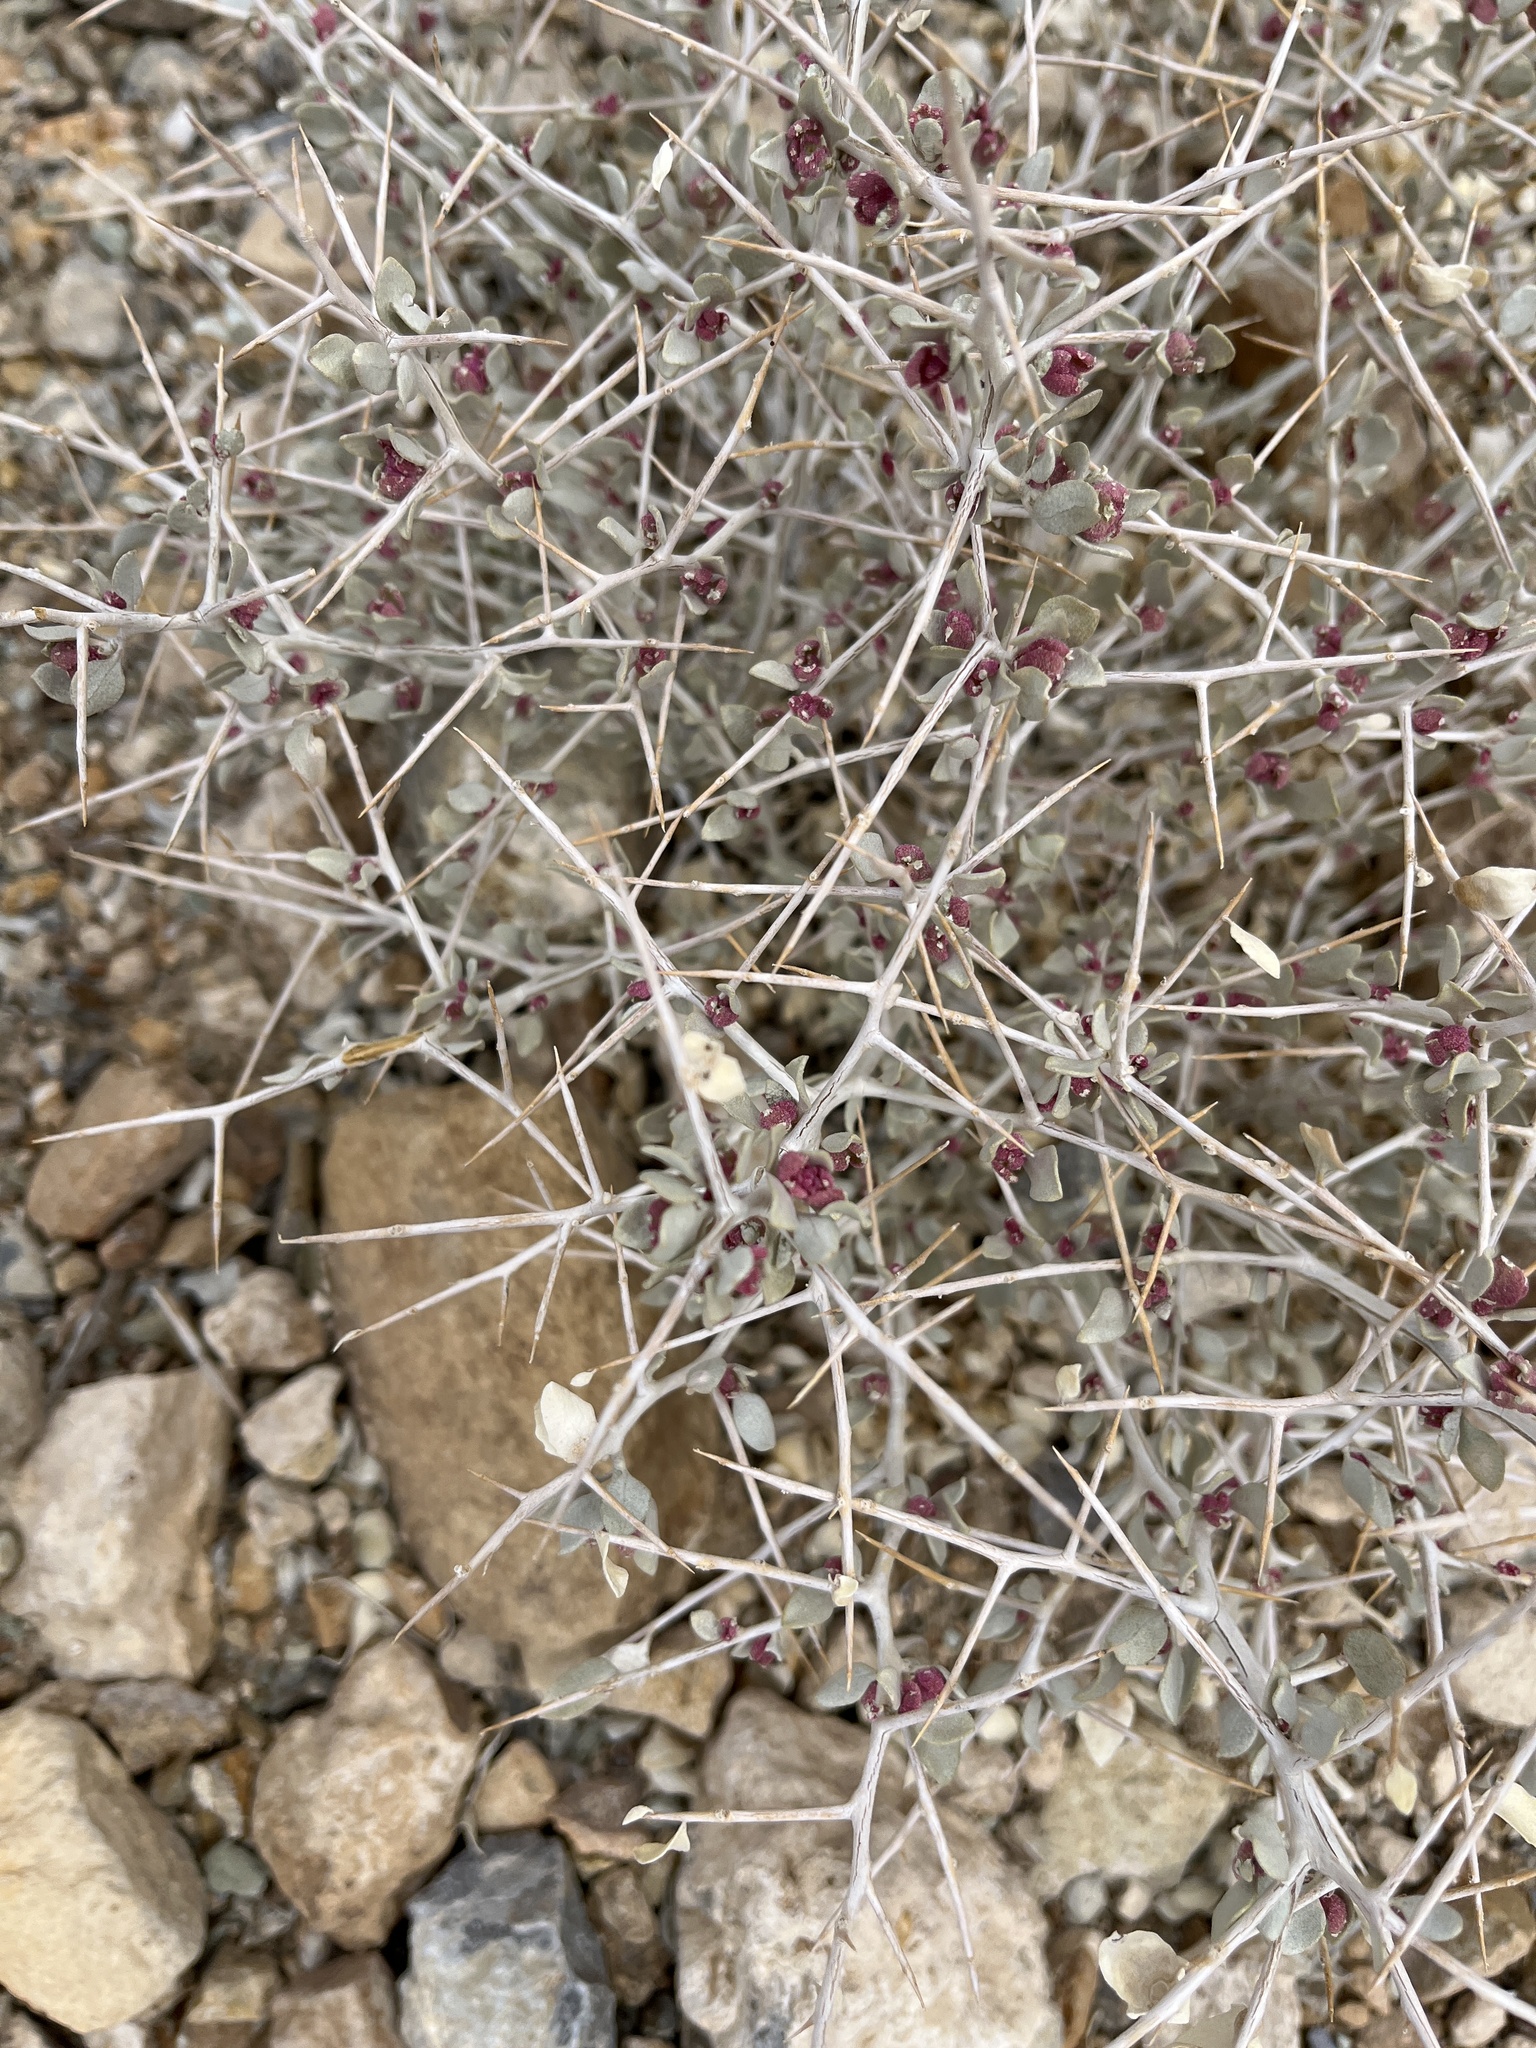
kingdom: Plantae
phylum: Tracheophyta
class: Magnoliopsida
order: Caryophyllales
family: Amaranthaceae
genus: Atriplex
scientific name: Atriplex confertifolia
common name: Shadscale
